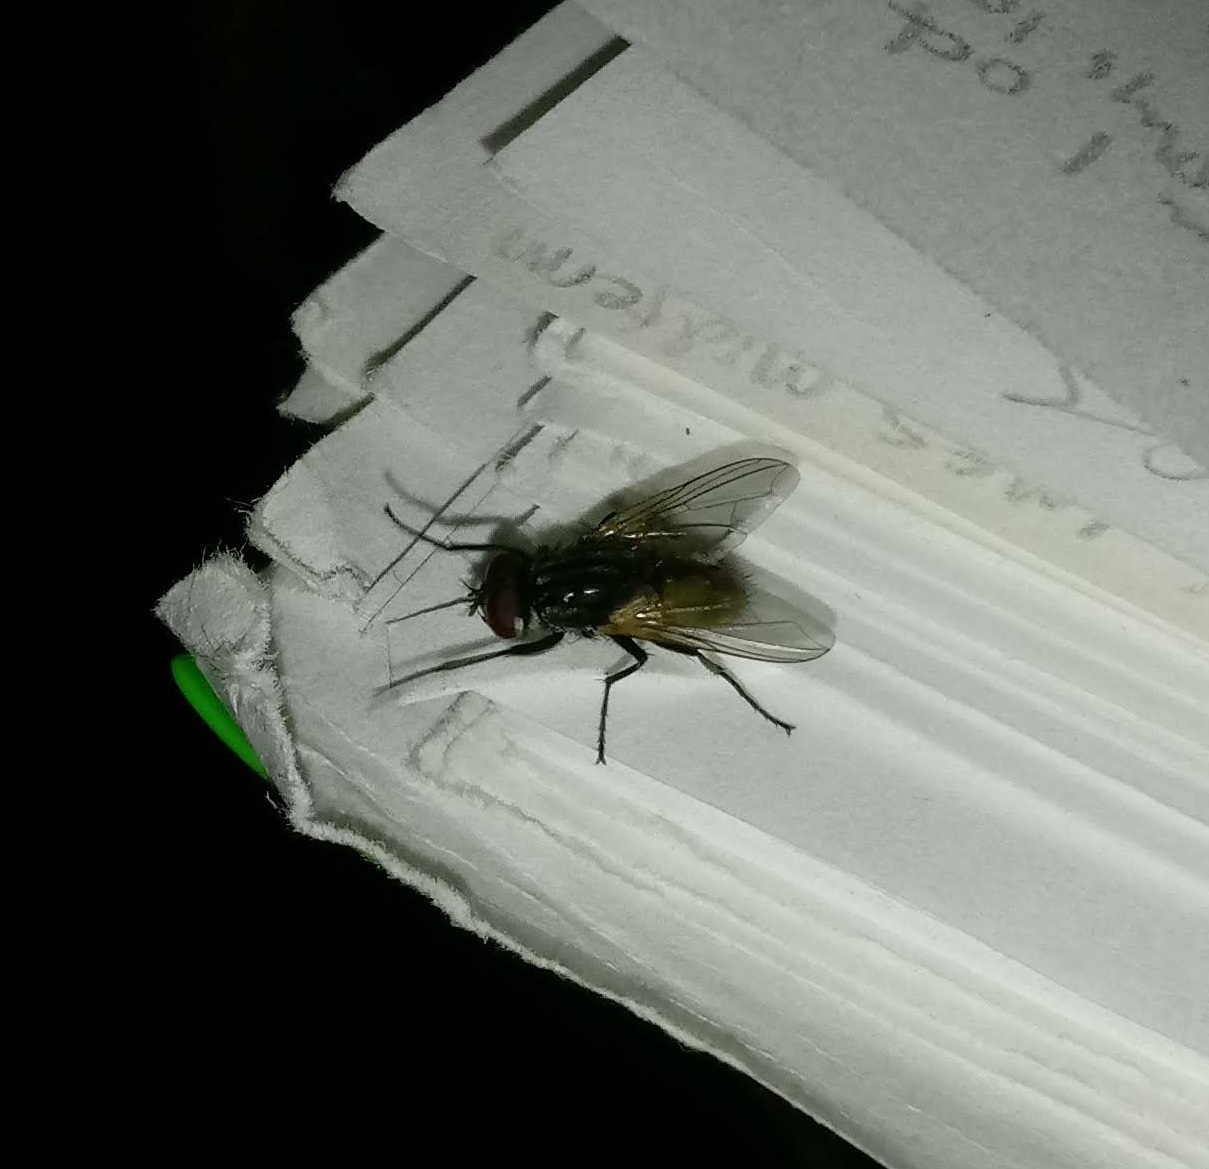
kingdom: Animalia
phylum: Arthropoda
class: Insecta
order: Diptera
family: Muscidae
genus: Musca
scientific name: Musca domestica
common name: House fly
